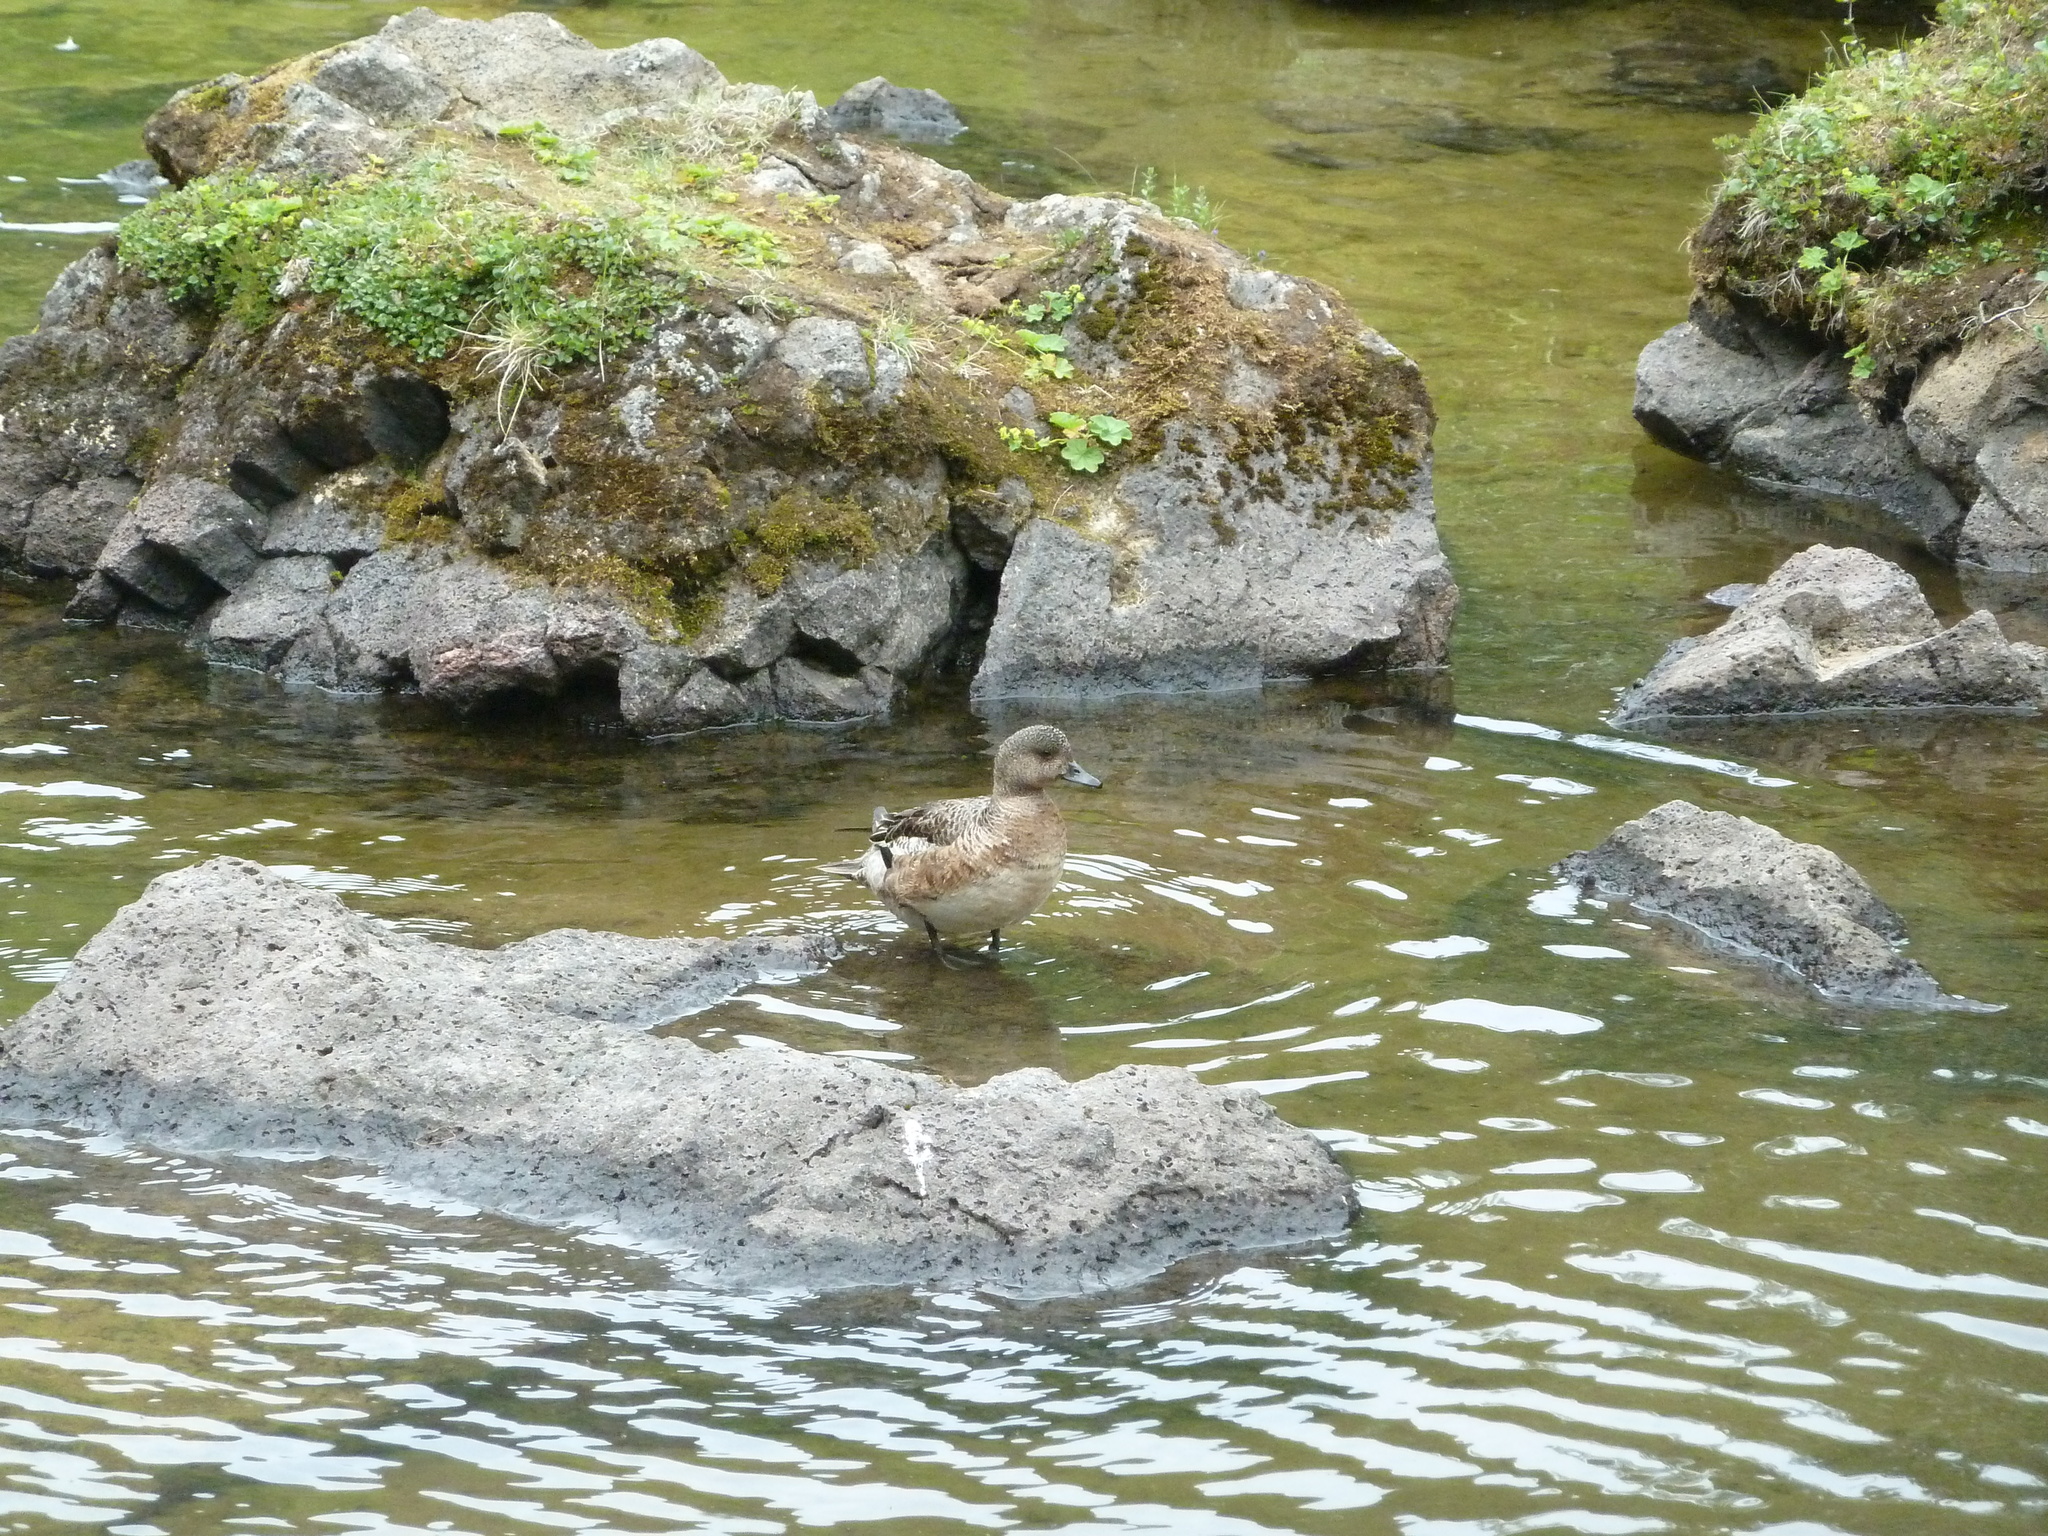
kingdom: Animalia
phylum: Chordata
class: Aves
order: Anseriformes
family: Anatidae
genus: Mareca
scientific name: Mareca penelope
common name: Eurasian wigeon
